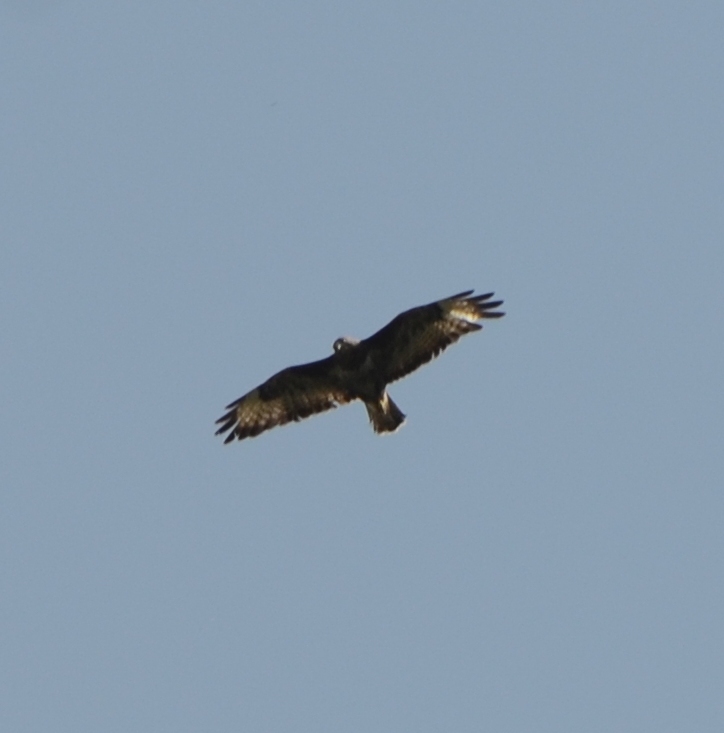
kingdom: Animalia
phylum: Chordata
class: Aves
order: Accipitriformes
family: Accipitridae
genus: Buteo
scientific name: Buteo buteo
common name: Common buzzard
